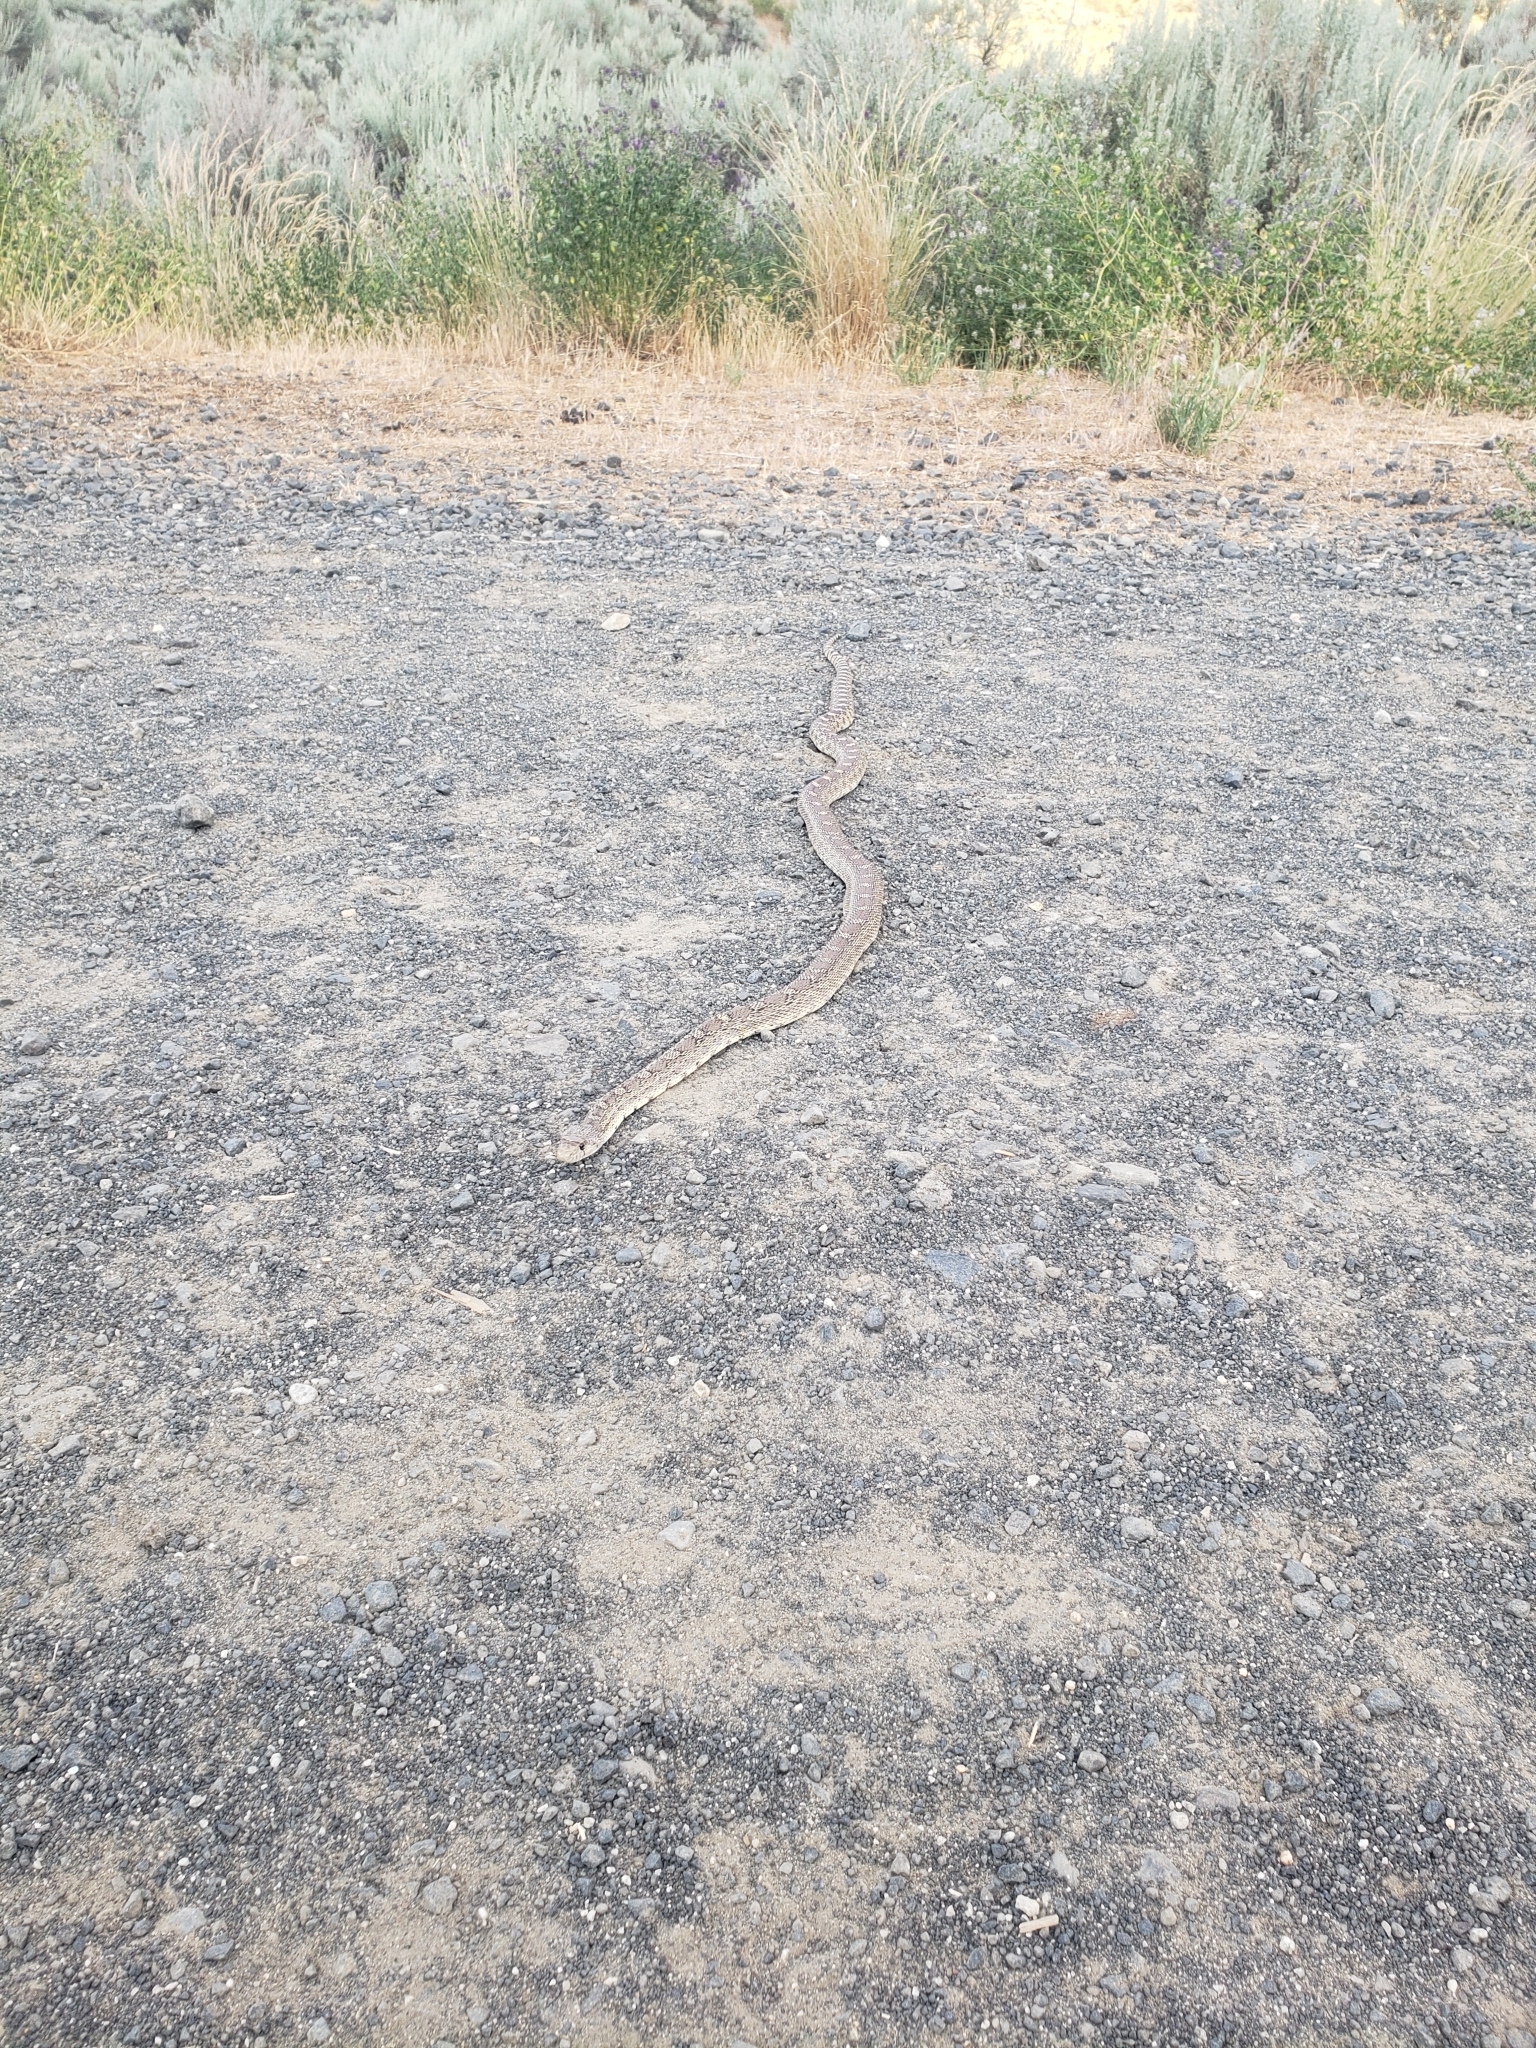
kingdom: Animalia
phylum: Chordata
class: Squamata
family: Colubridae
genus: Pituophis
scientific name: Pituophis catenifer
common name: Gopher snake
